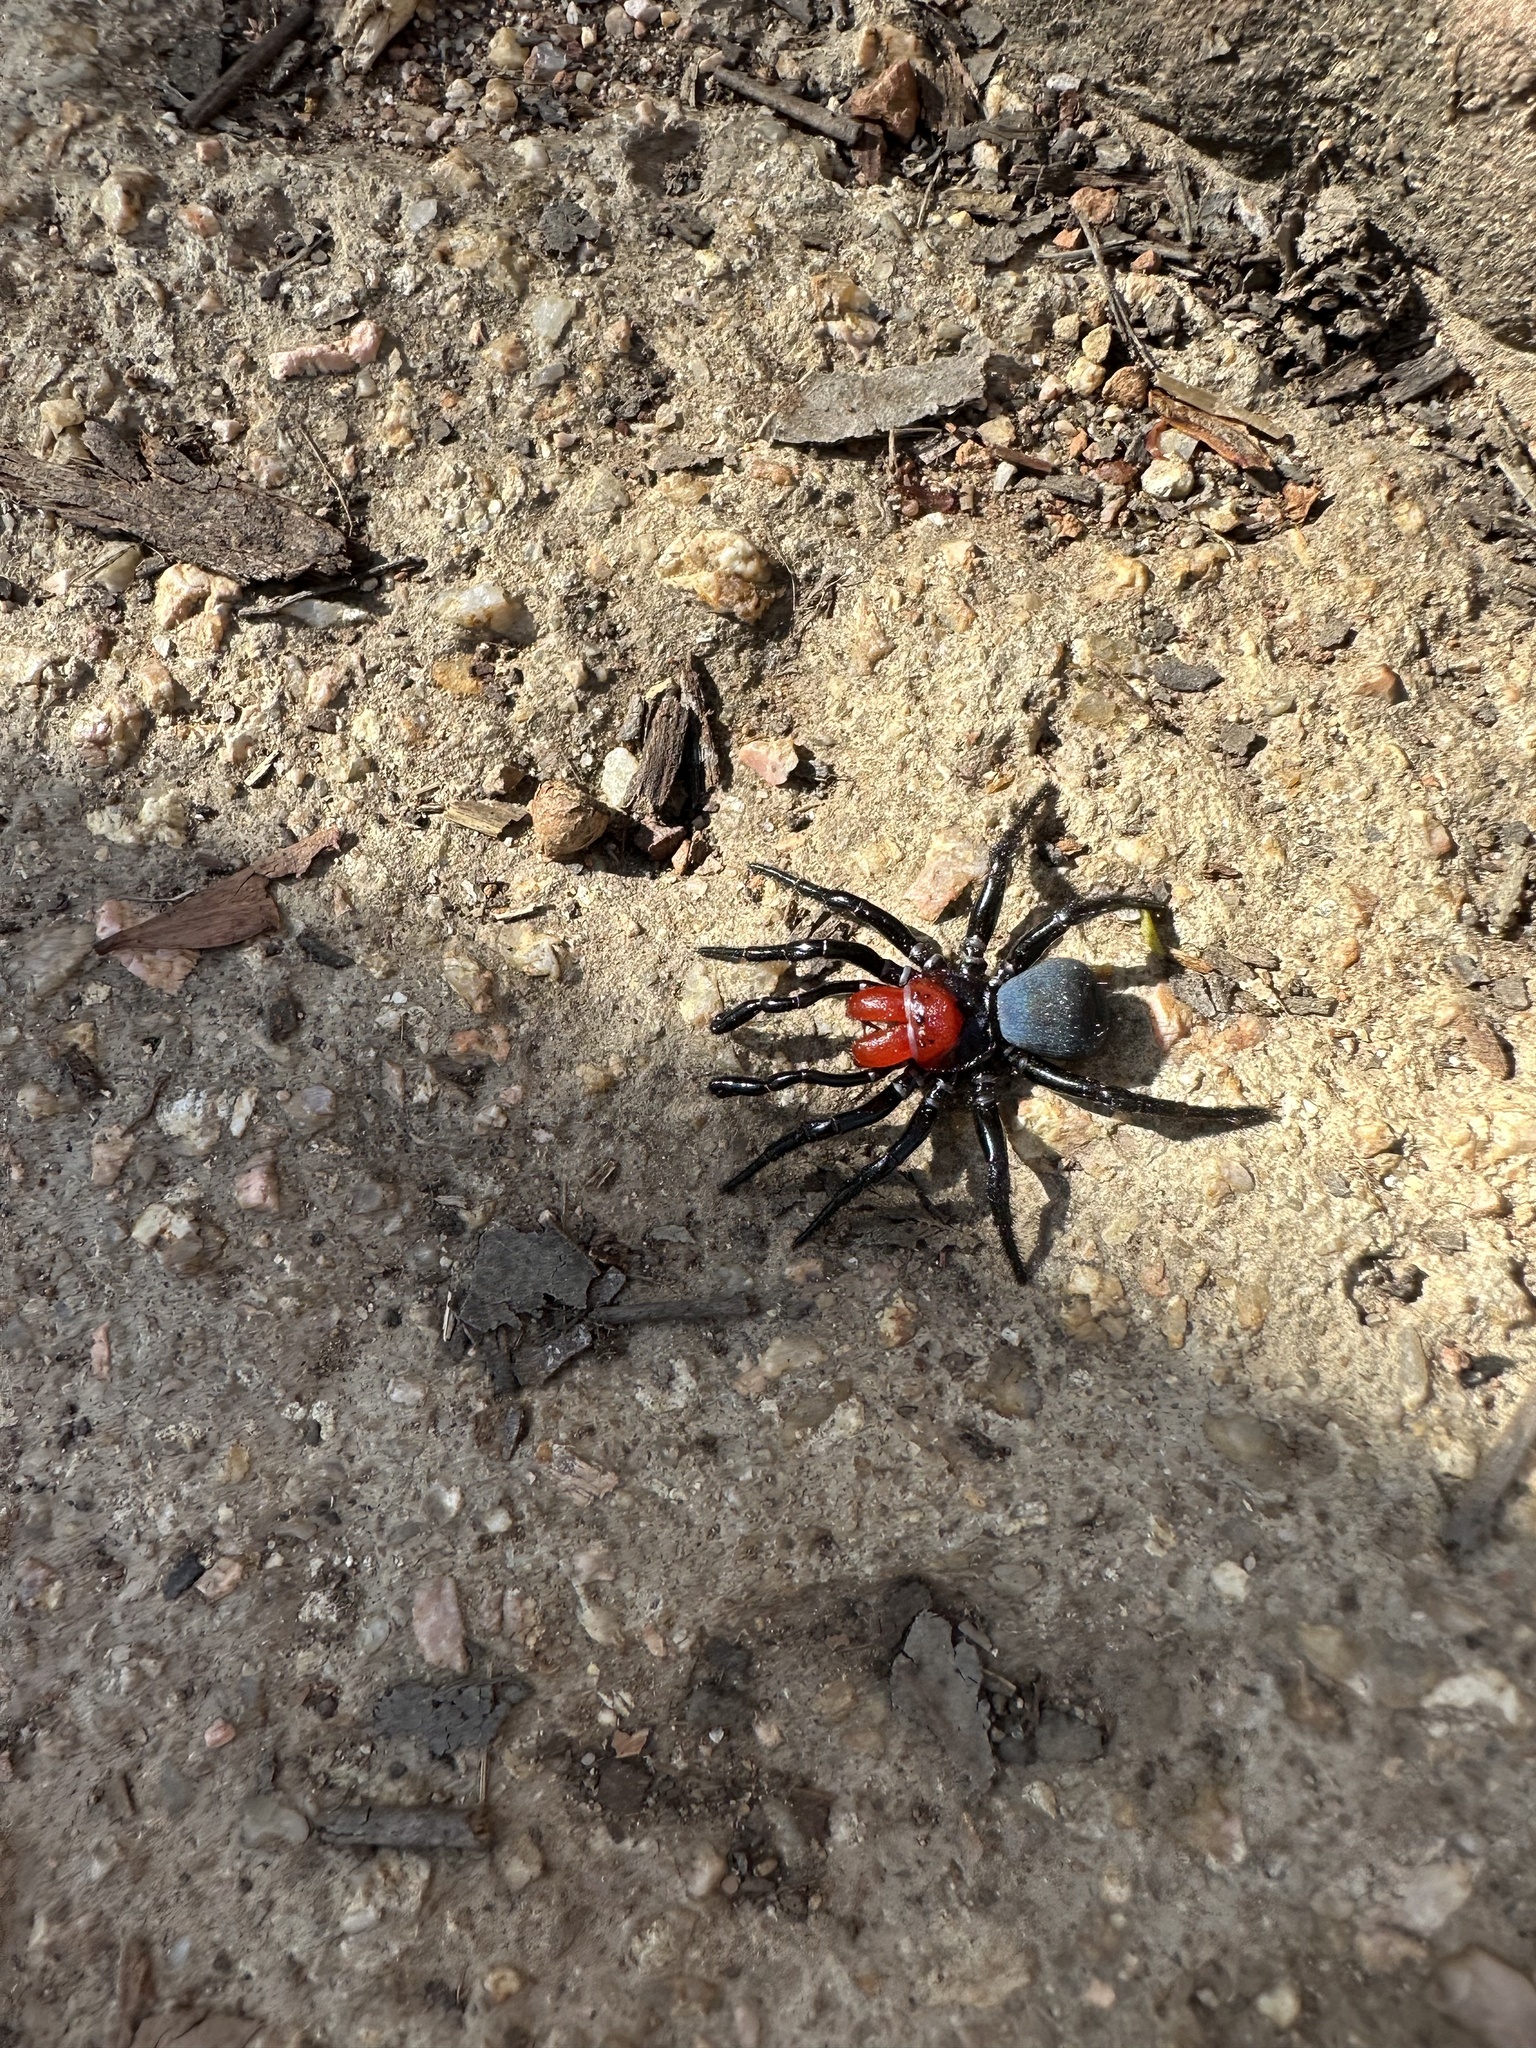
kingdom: Animalia
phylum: Arthropoda
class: Arachnida
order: Araneae
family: Actinopodidae
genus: Missulena
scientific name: Missulena occatoria
